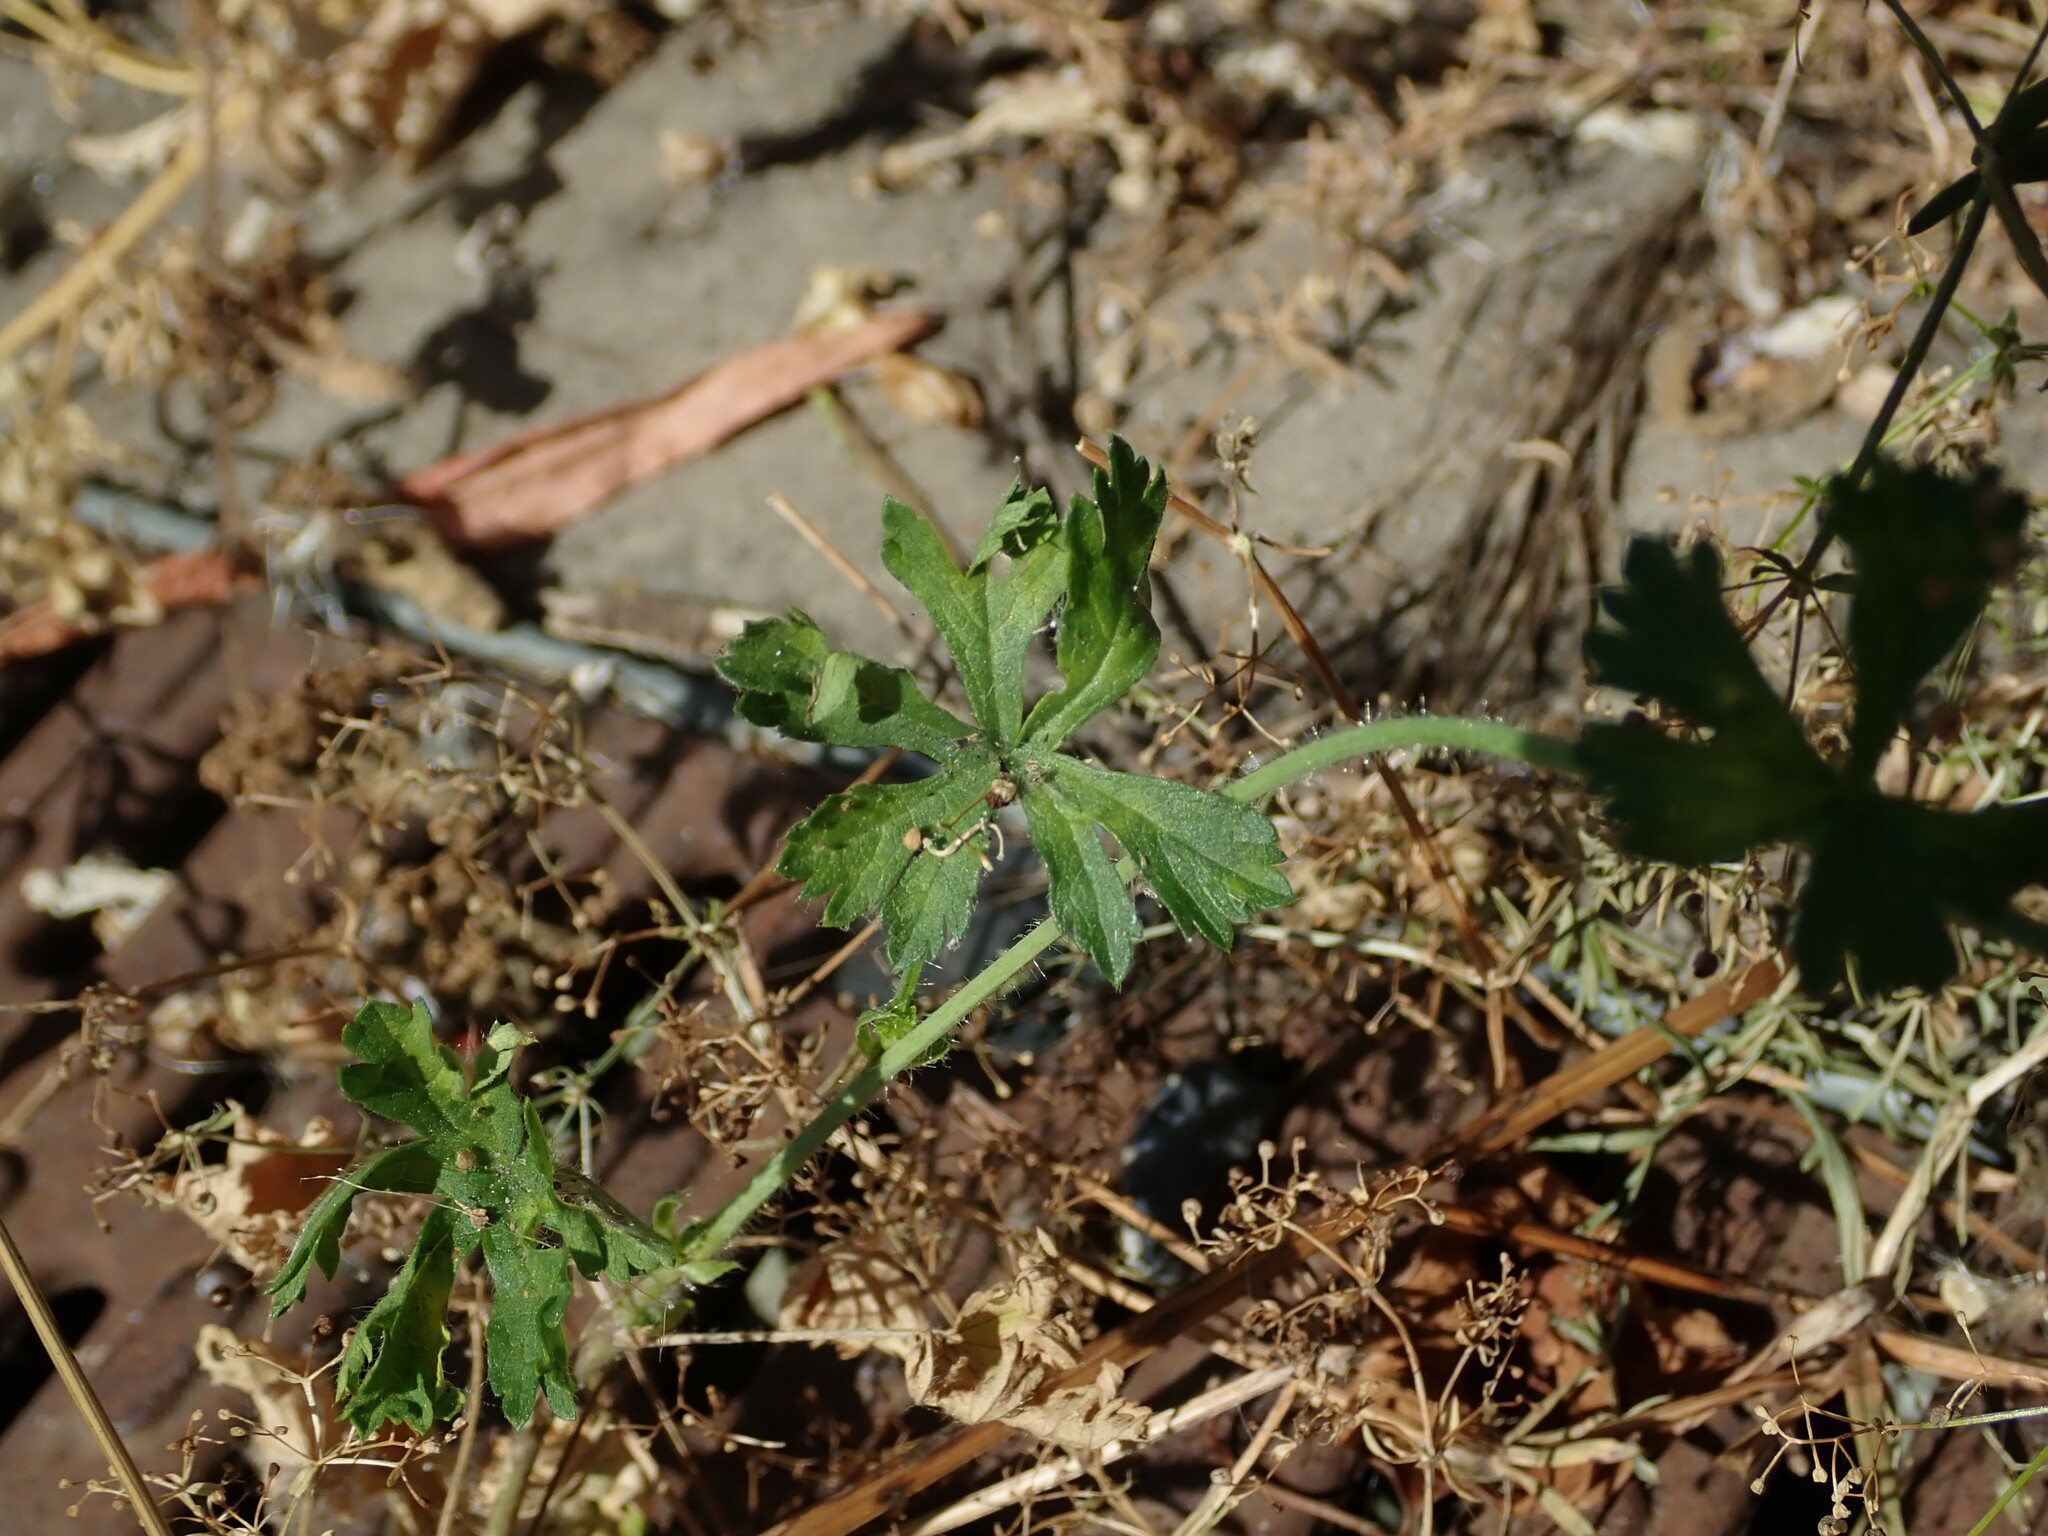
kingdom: Plantae
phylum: Tracheophyta
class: Magnoliopsida
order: Malvales
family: Malvaceae
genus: Malva
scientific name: Malva moschata
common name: Musk mallow
